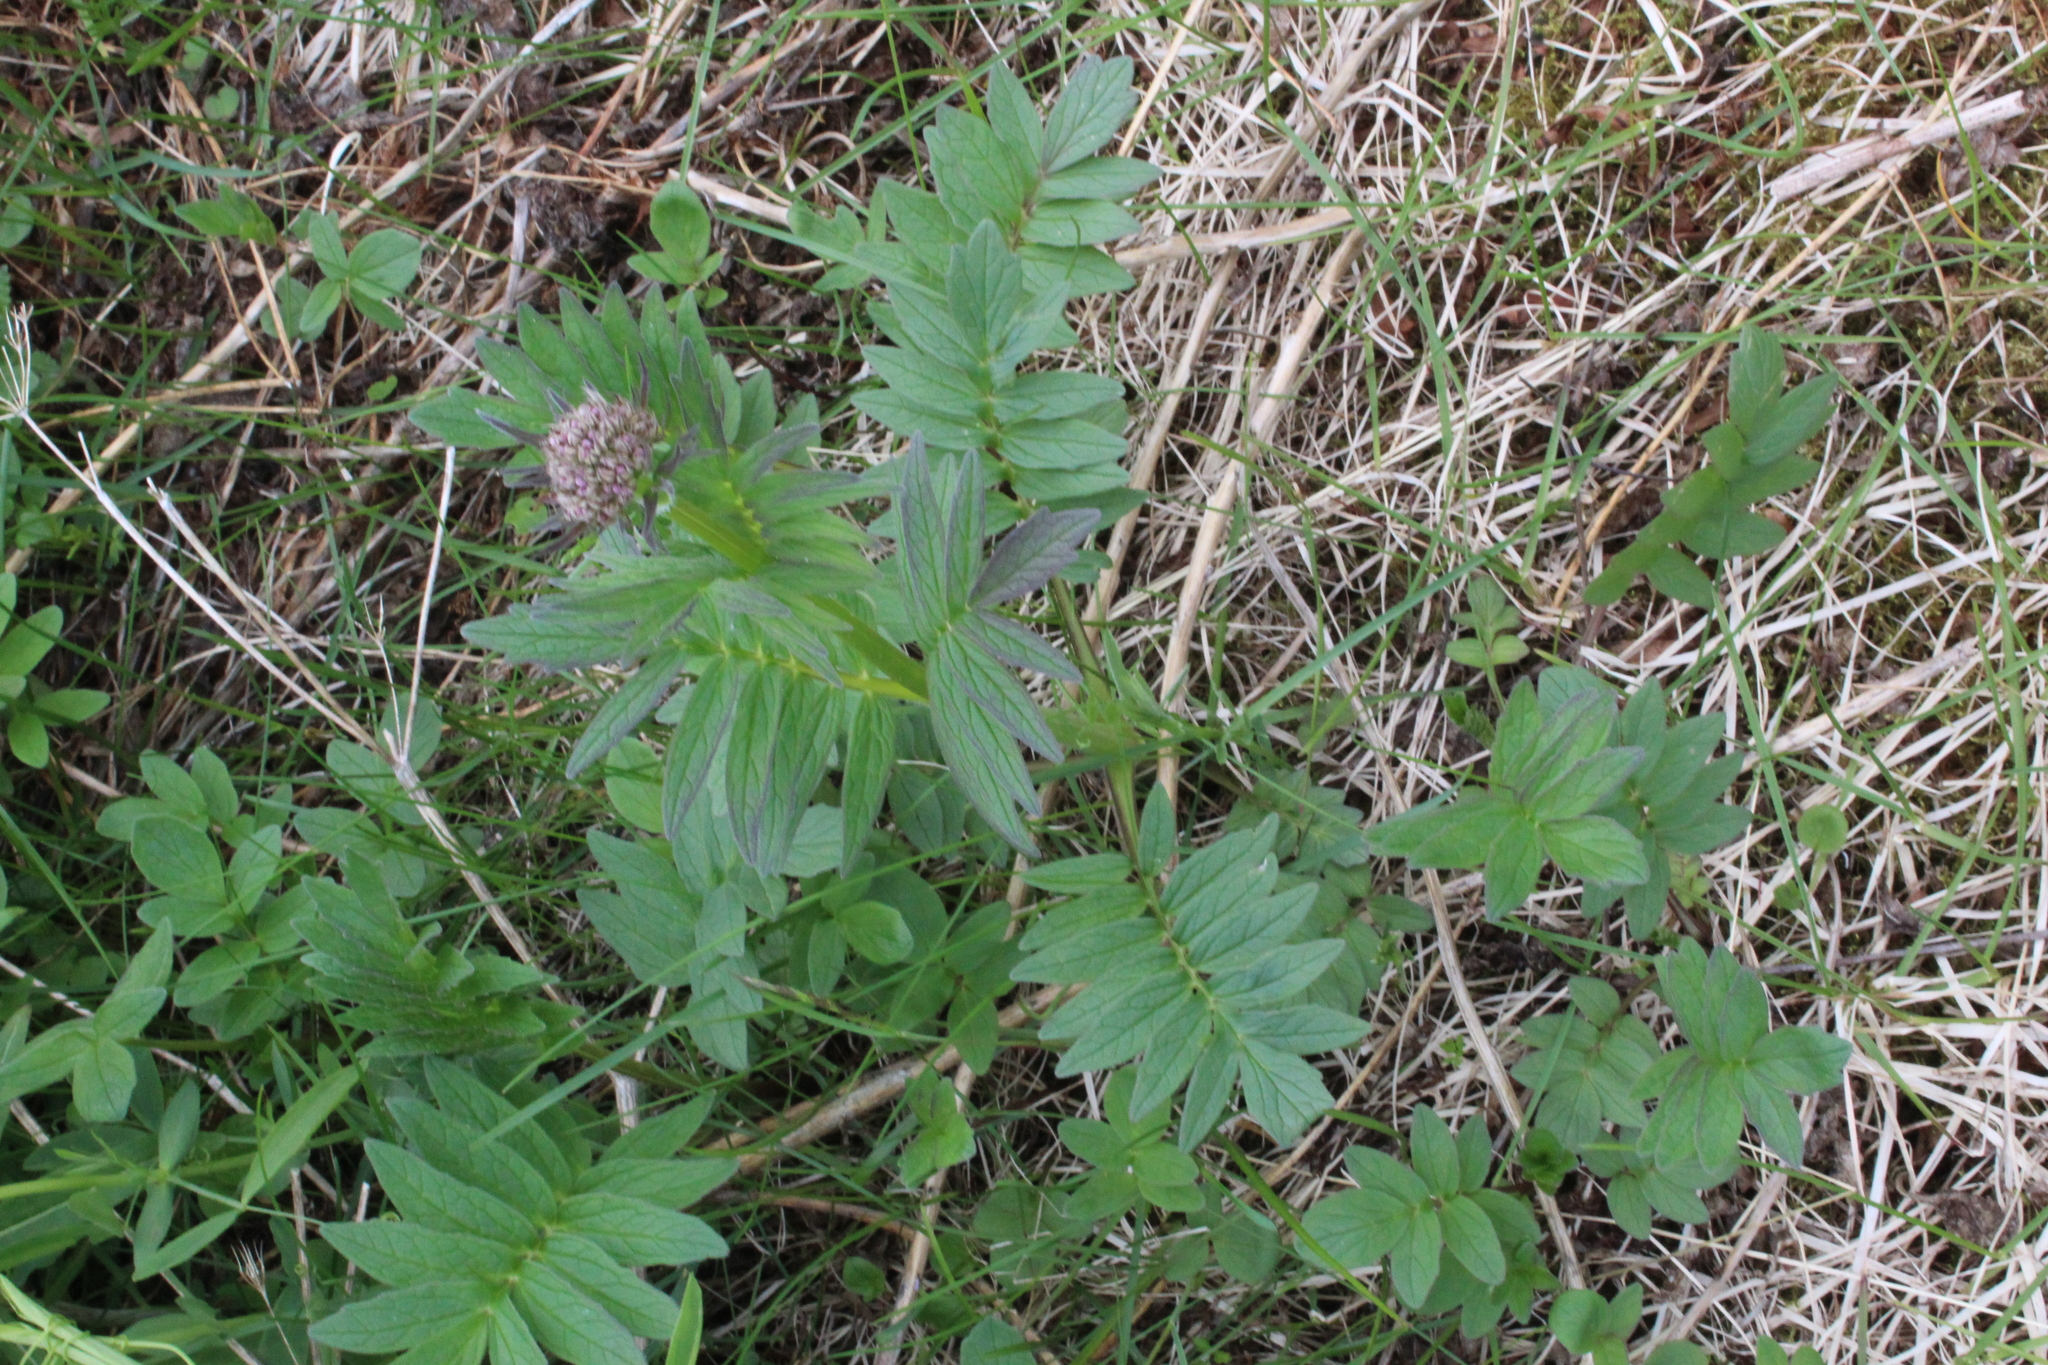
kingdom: Plantae
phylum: Tracheophyta
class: Magnoliopsida
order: Dipsacales
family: Caprifoliaceae
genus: Valeriana
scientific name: Valeriana sambucifolia
